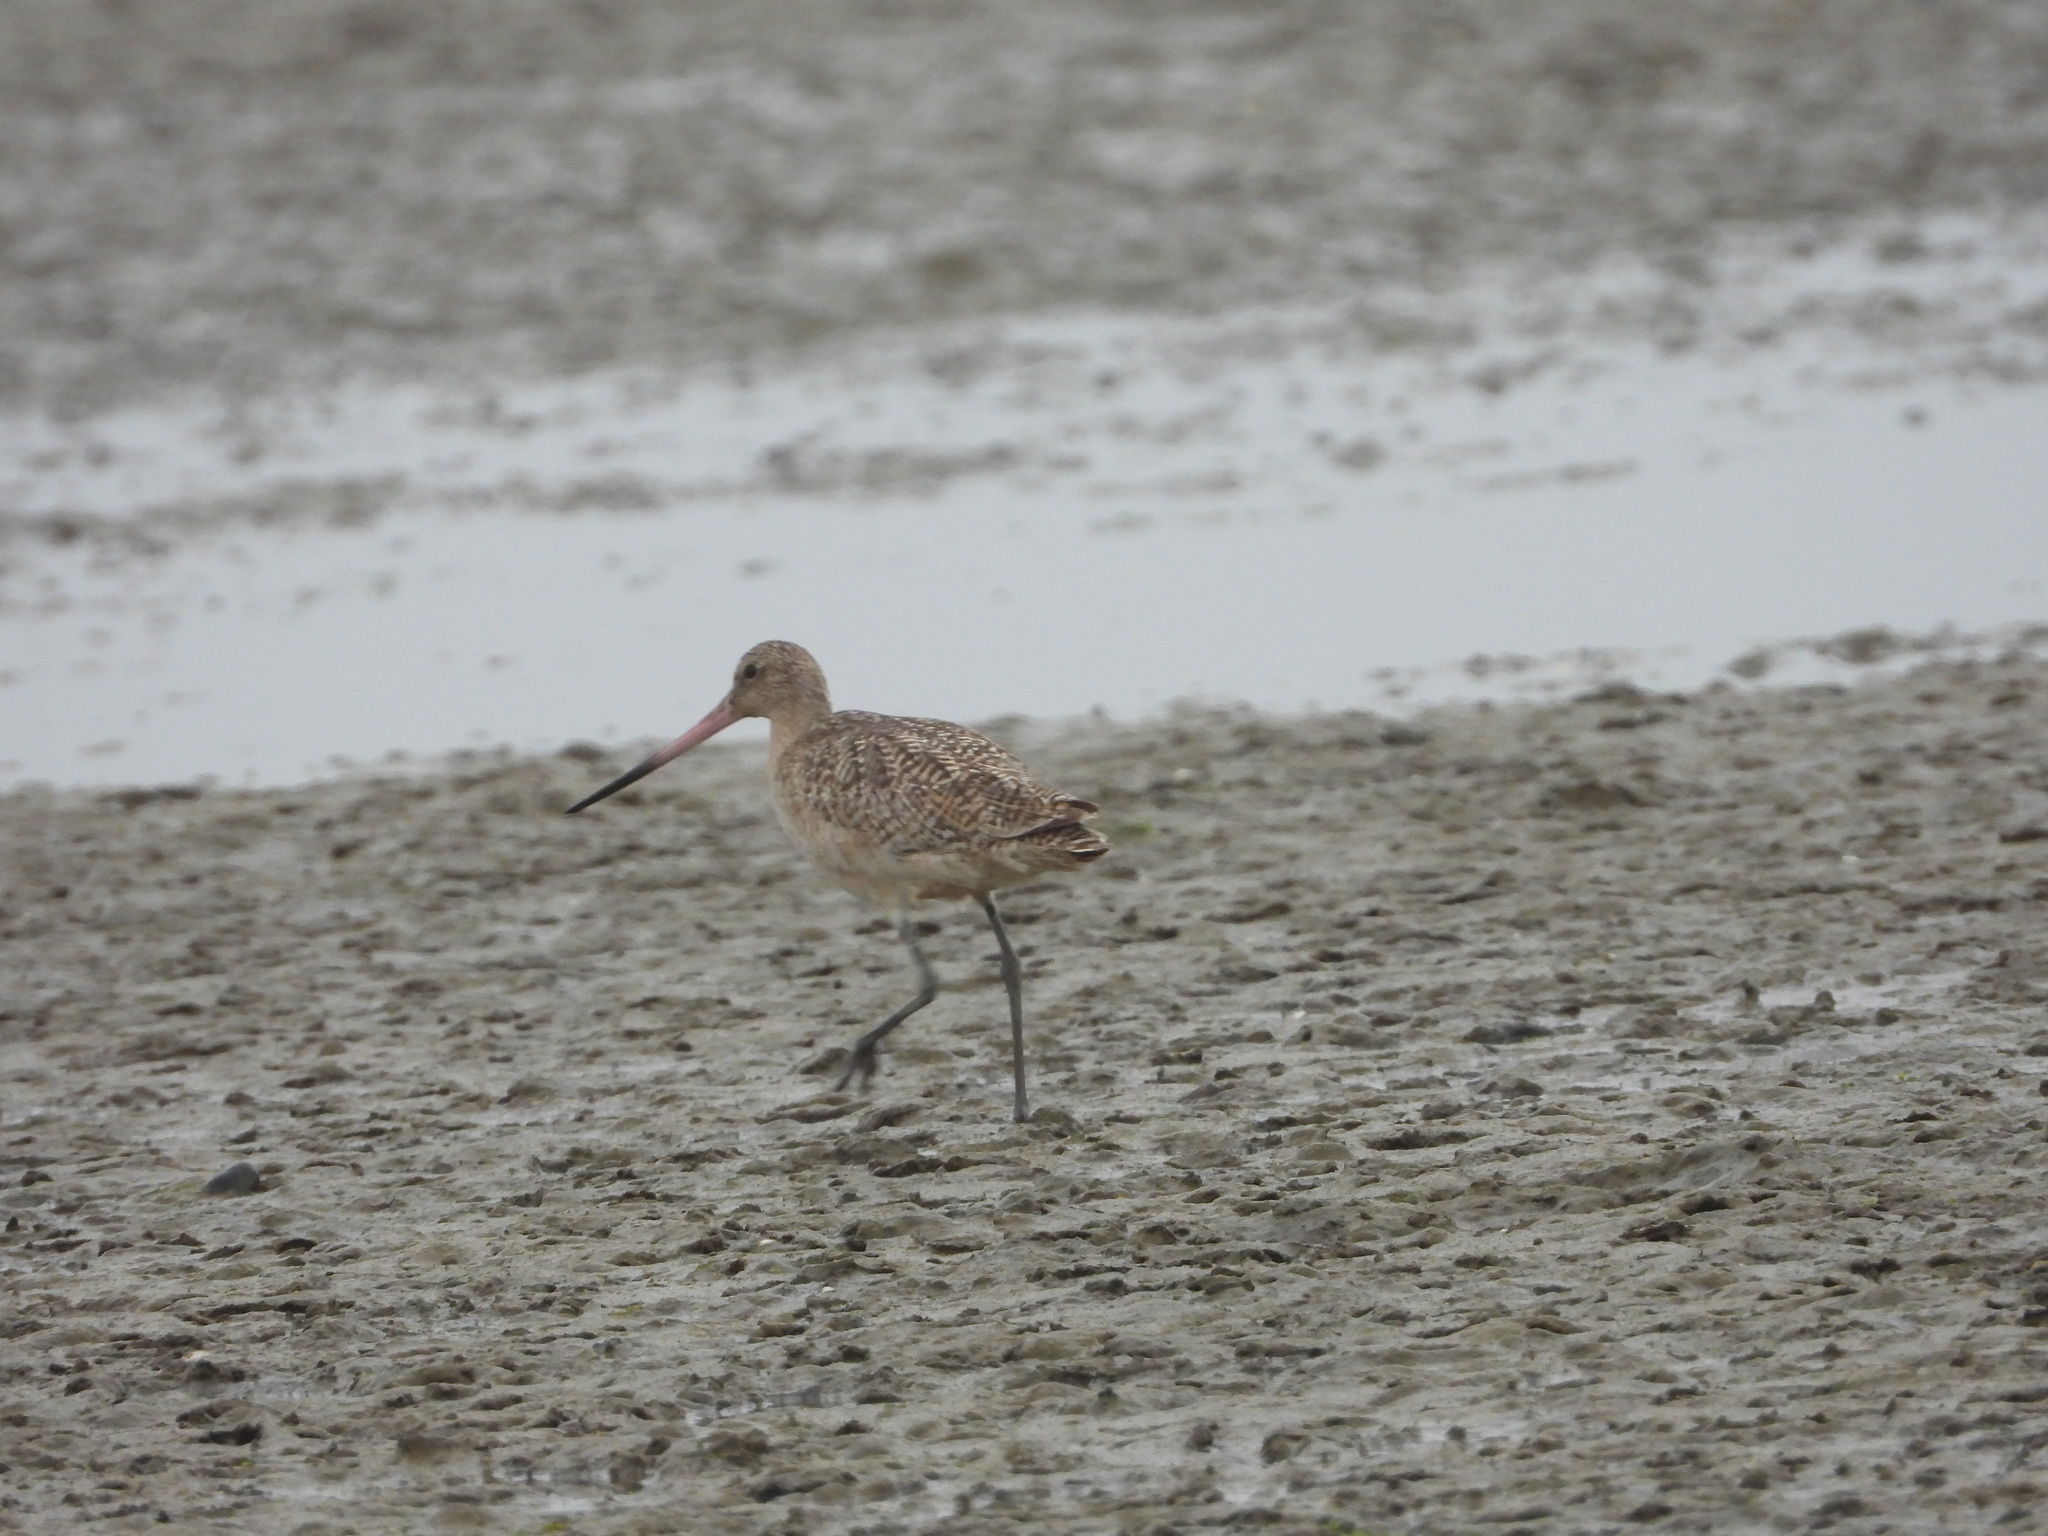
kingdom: Animalia
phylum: Chordata
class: Aves
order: Charadriiformes
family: Scolopacidae
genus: Limosa
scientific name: Limosa fedoa
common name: Marbled godwit
